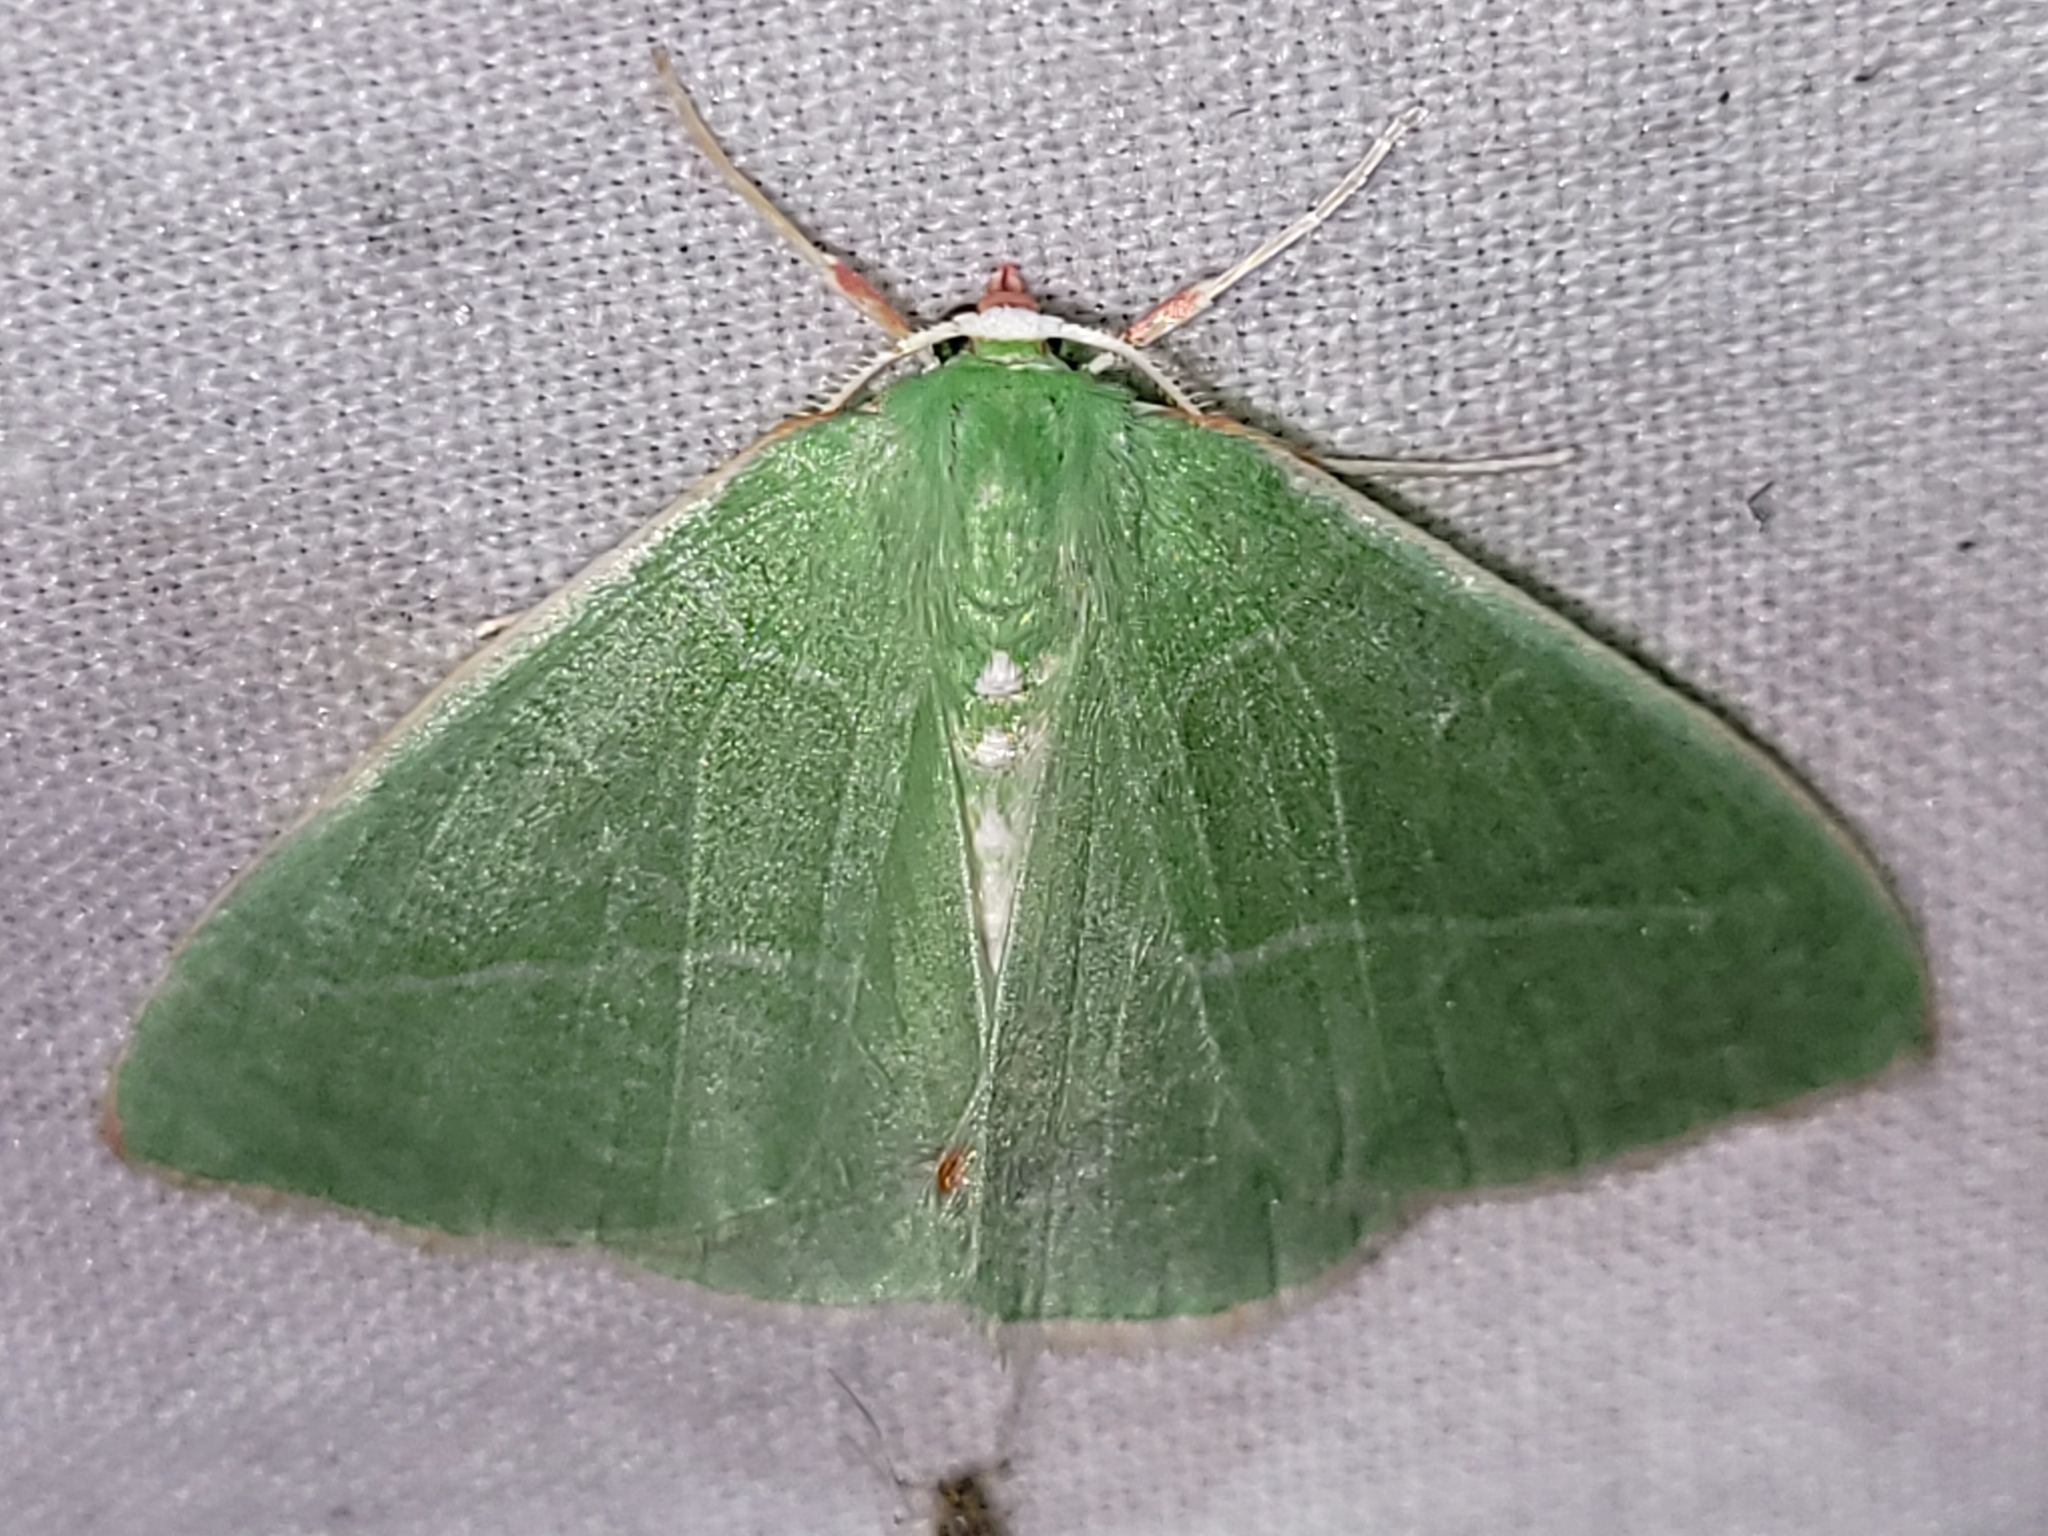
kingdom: Animalia
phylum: Arthropoda
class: Insecta
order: Lepidoptera
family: Geometridae
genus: Nemoria
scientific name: Nemoria unitaria
